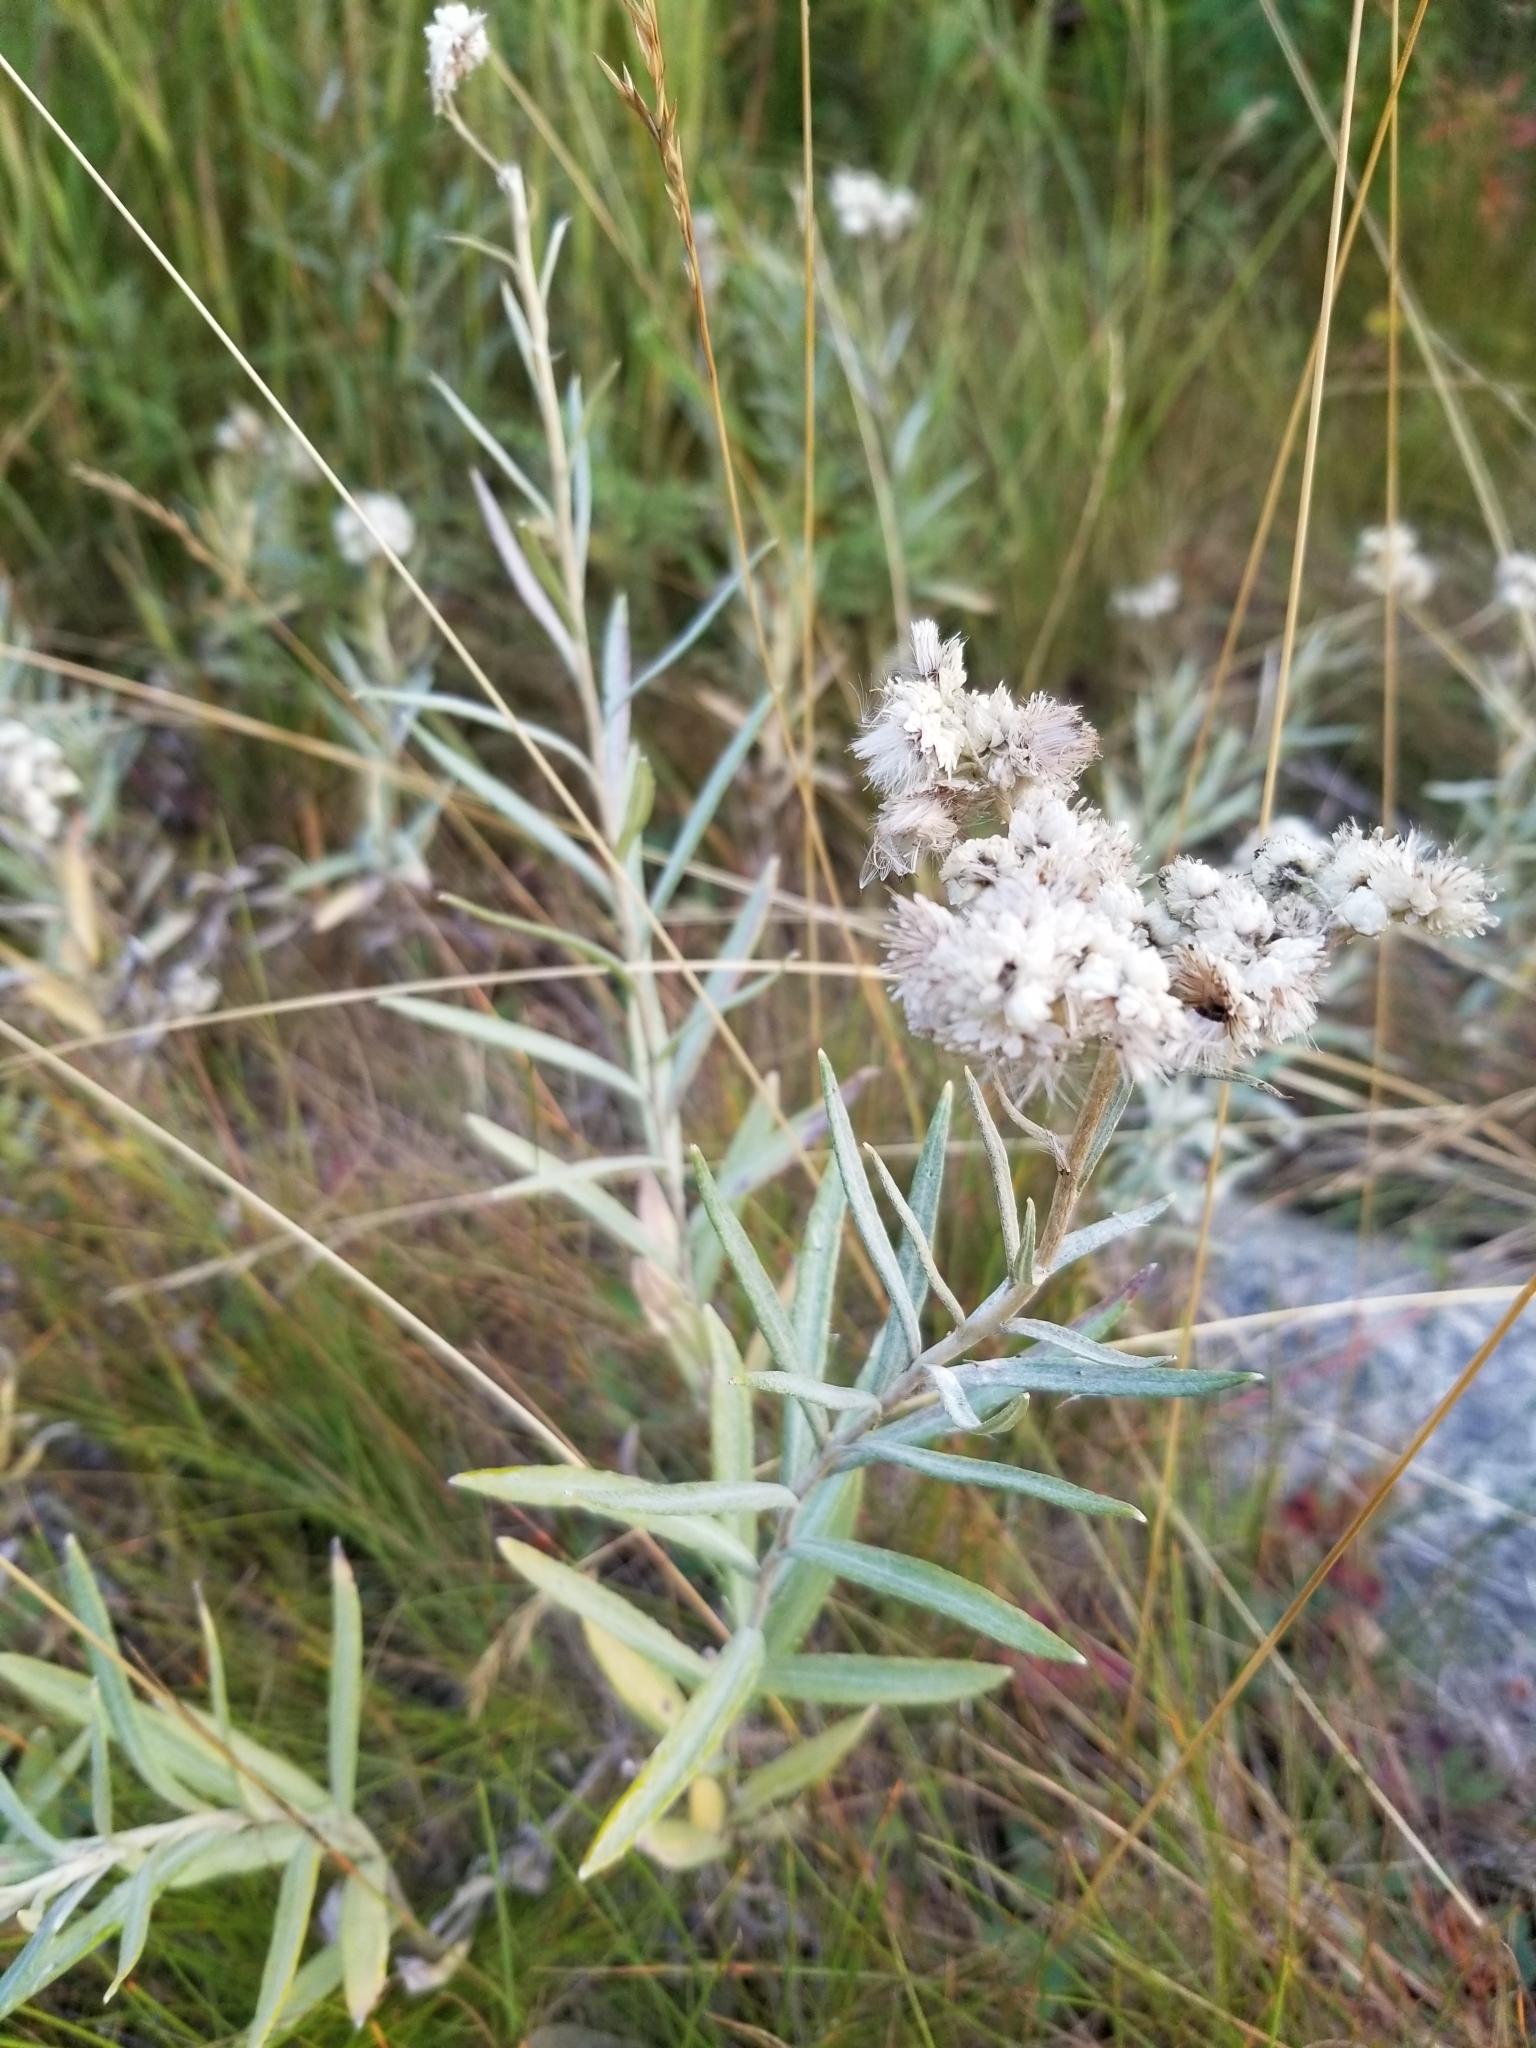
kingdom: Plantae
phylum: Tracheophyta
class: Magnoliopsida
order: Asterales
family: Asteraceae
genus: Anaphalis
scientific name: Anaphalis margaritacea
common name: Pearly everlasting
